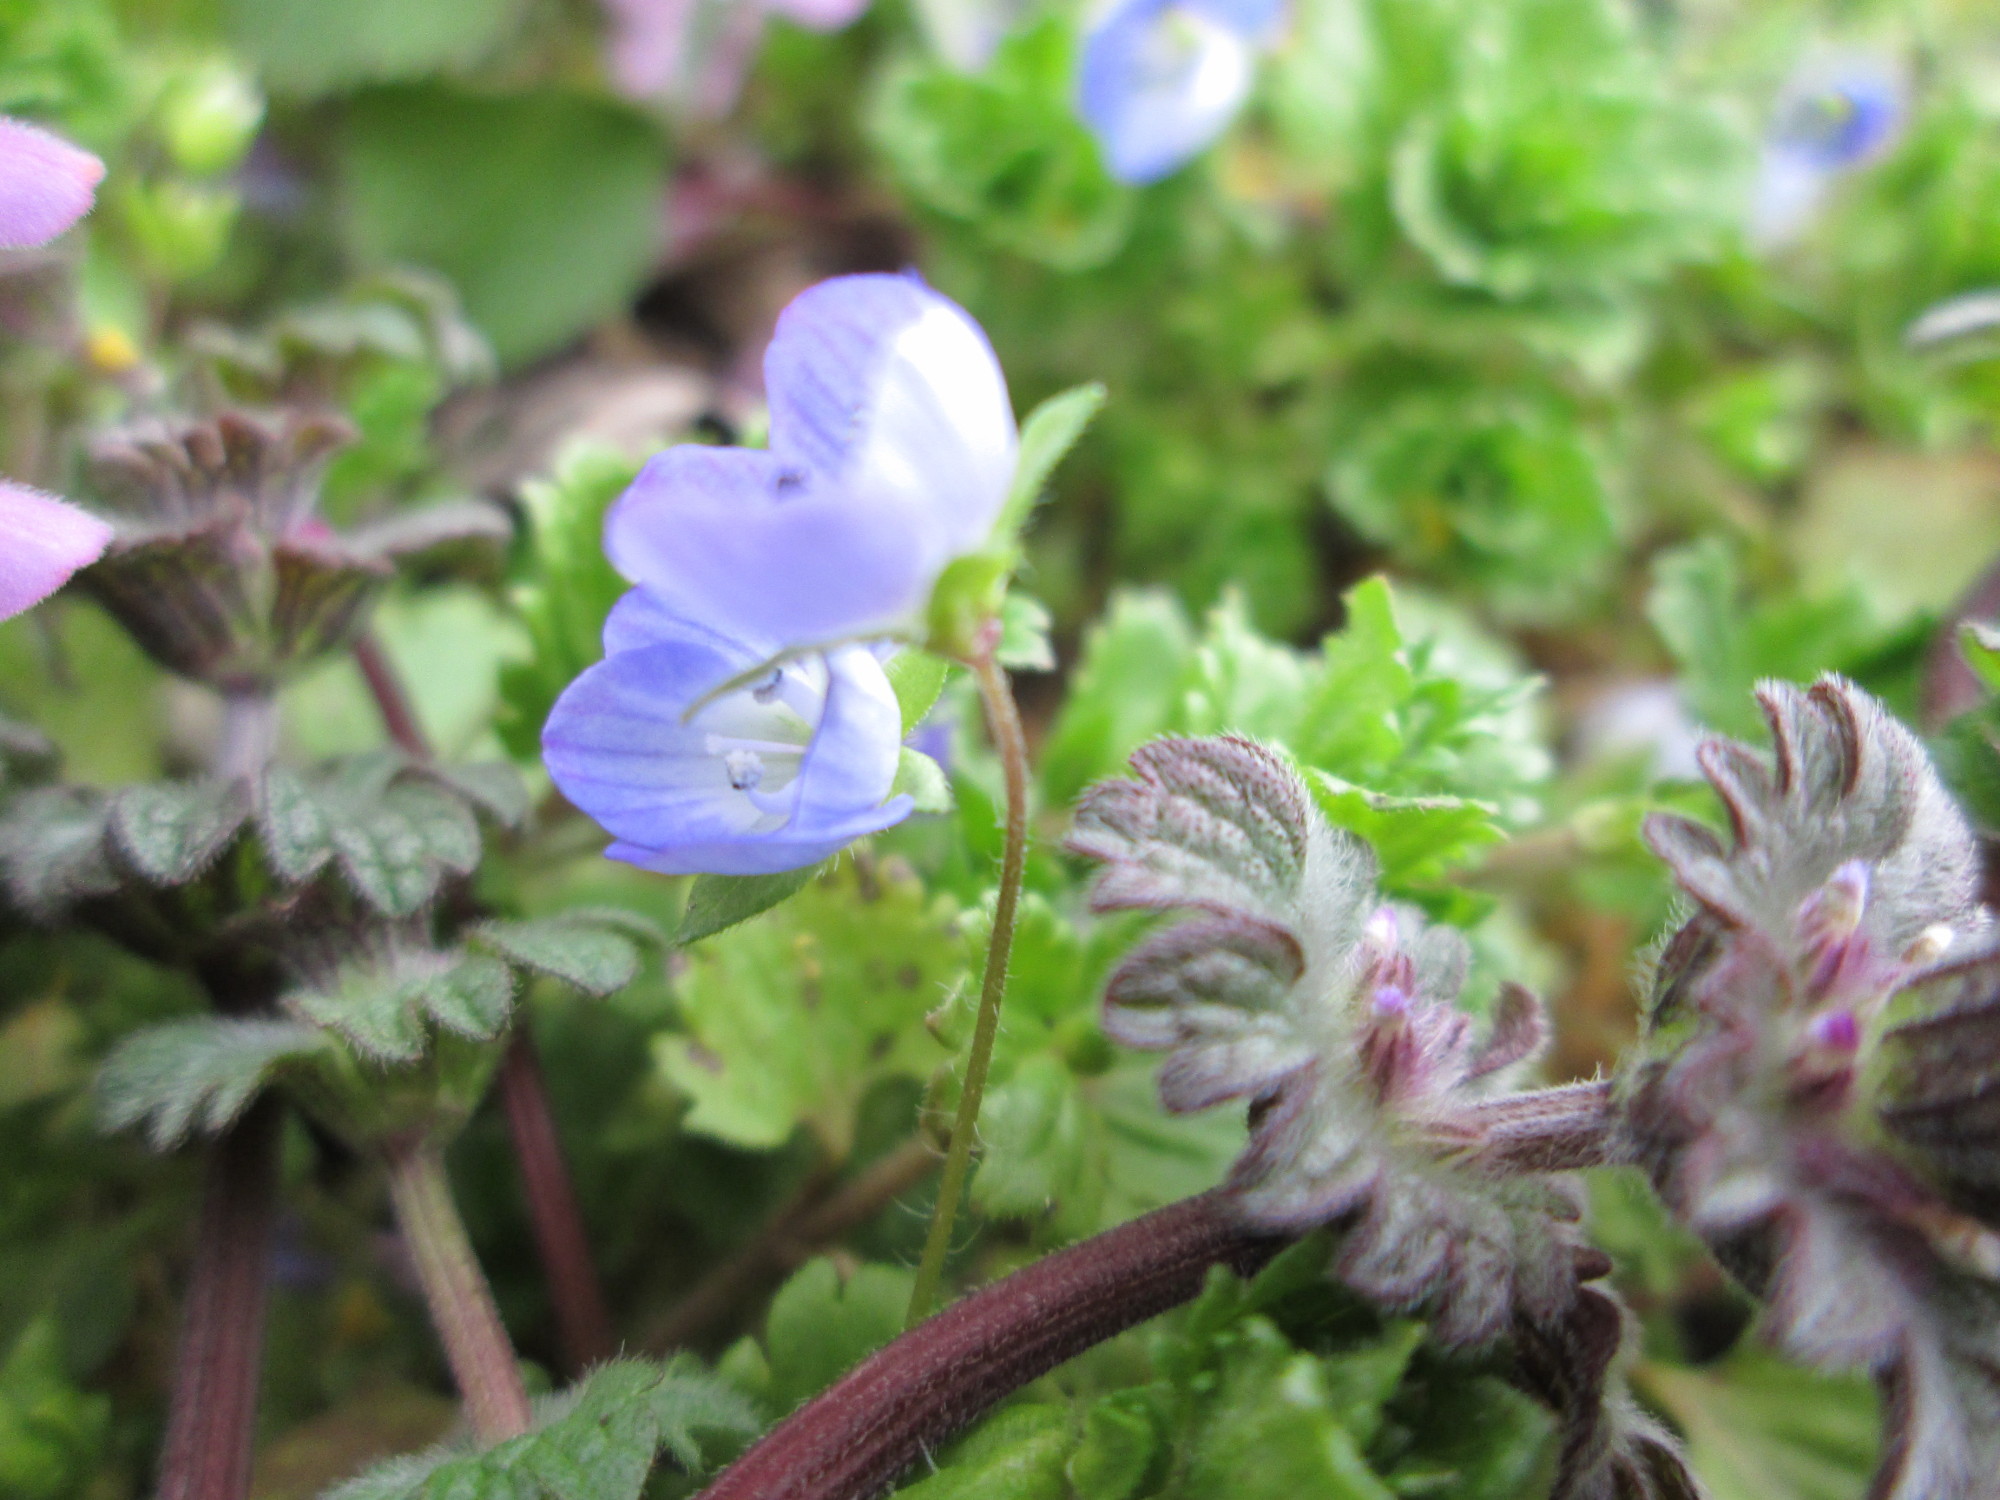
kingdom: Plantae
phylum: Tracheophyta
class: Magnoliopsida
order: Lamiales
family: Plantaginaceae
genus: Veronica
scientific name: Veronica persica
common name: Common field-speedwell
